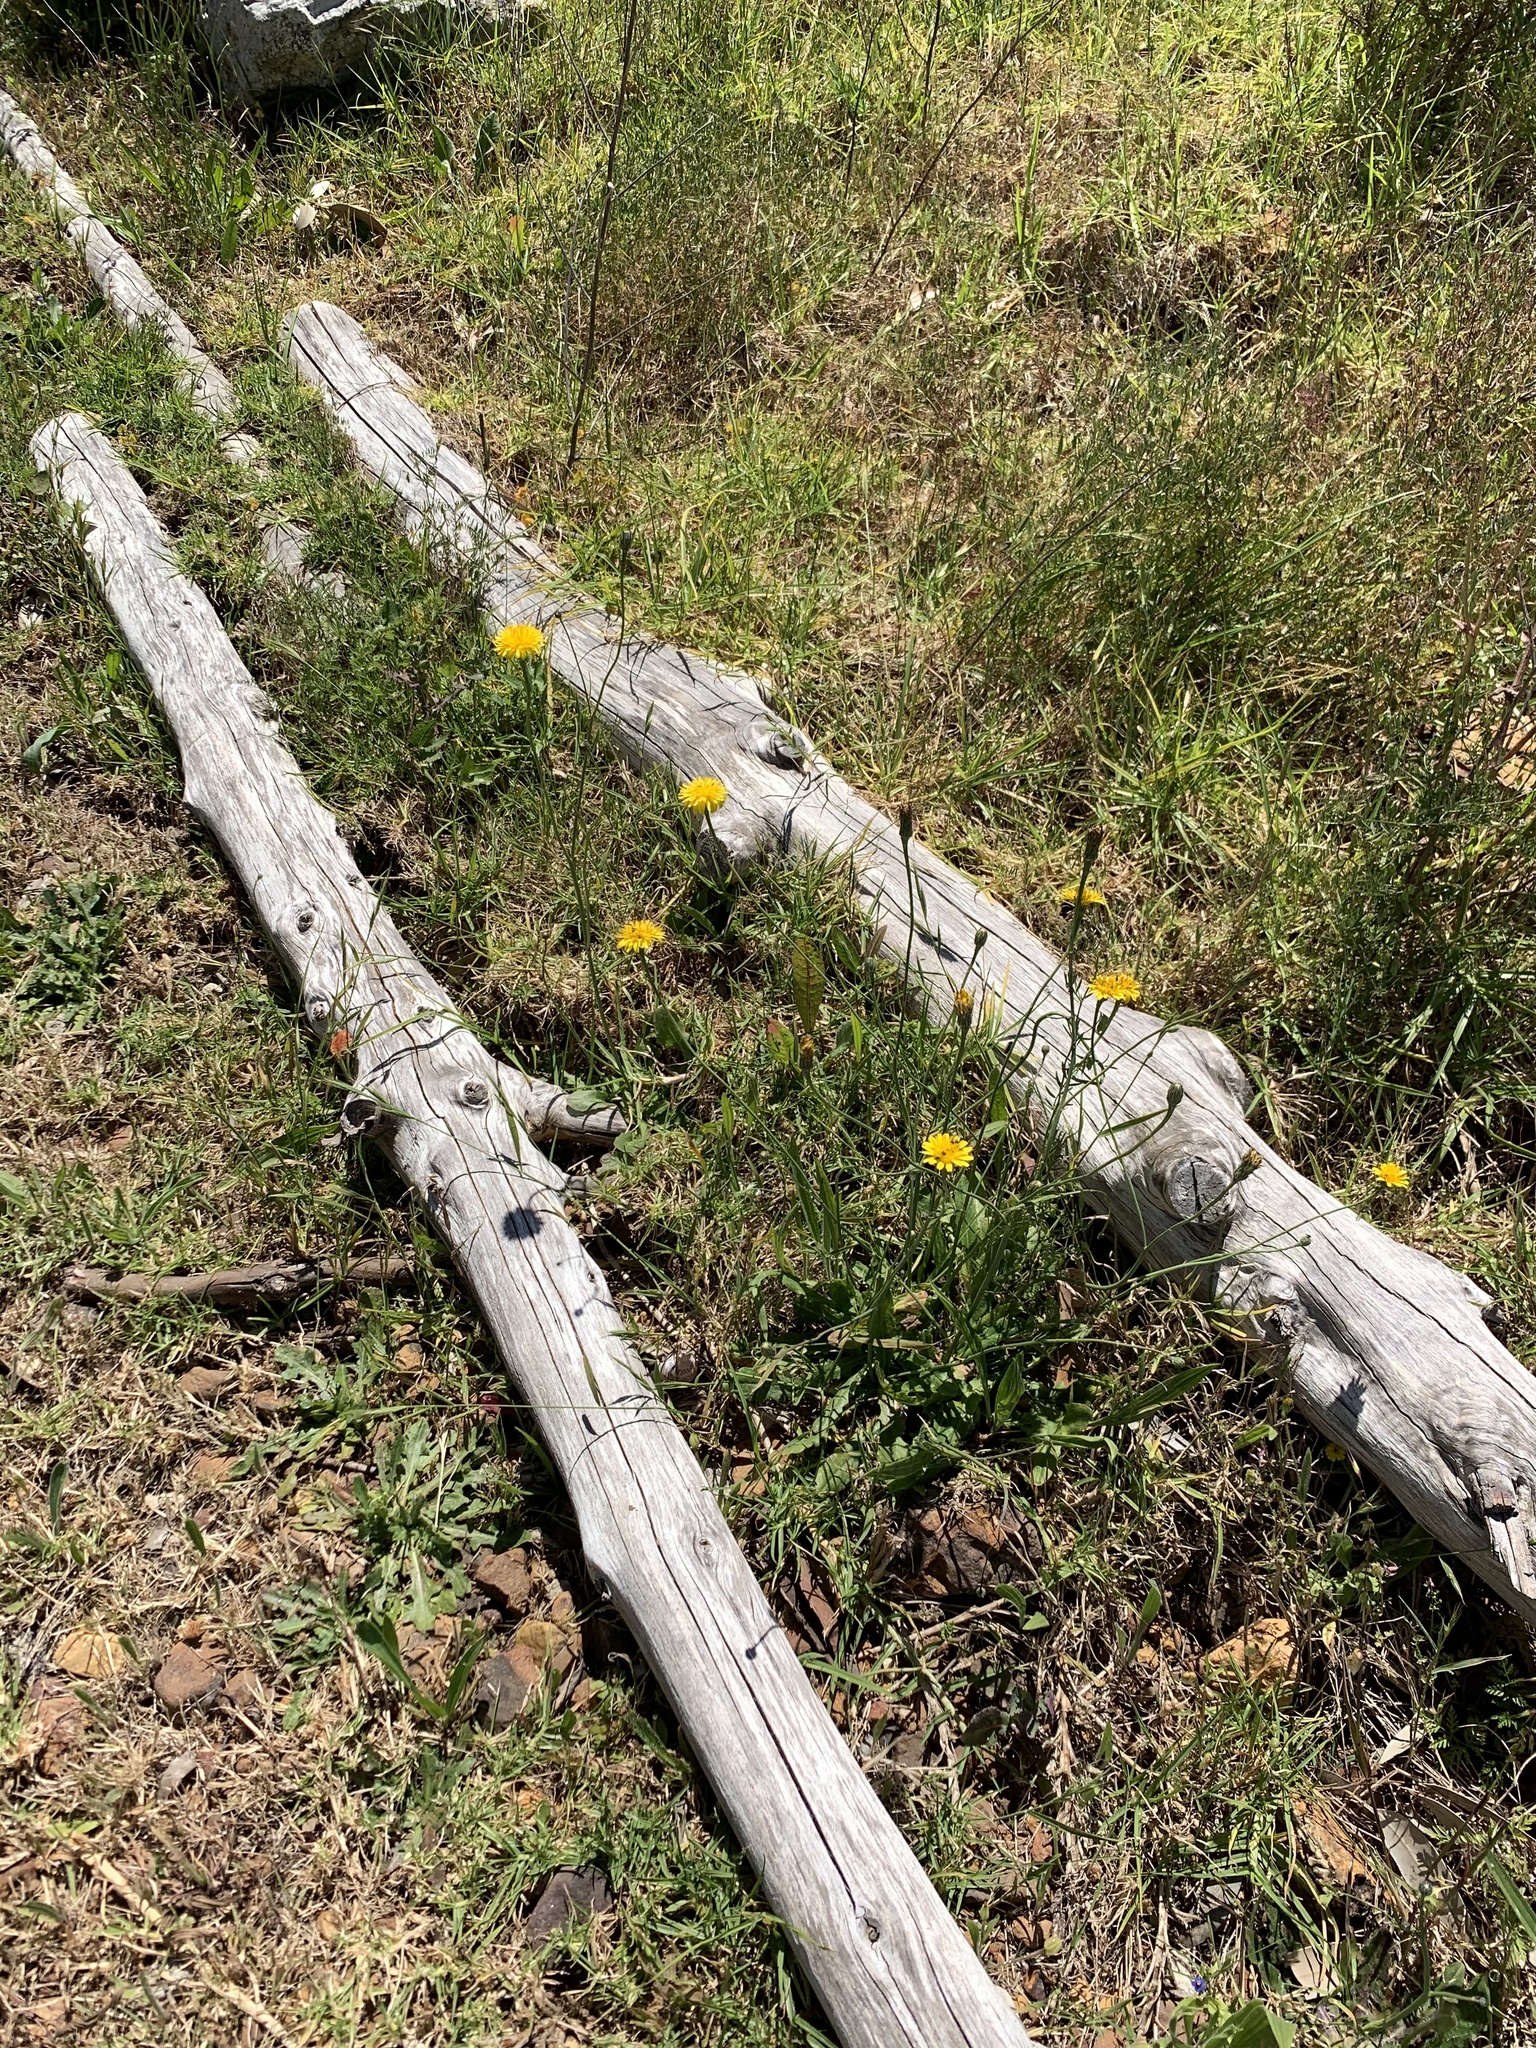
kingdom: Plantae
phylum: Tracheophyta
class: Magnoliopsida
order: Asterales
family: Asteraceae
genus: Hypochaeris
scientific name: Hypochaeris radicata
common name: Flatweed
